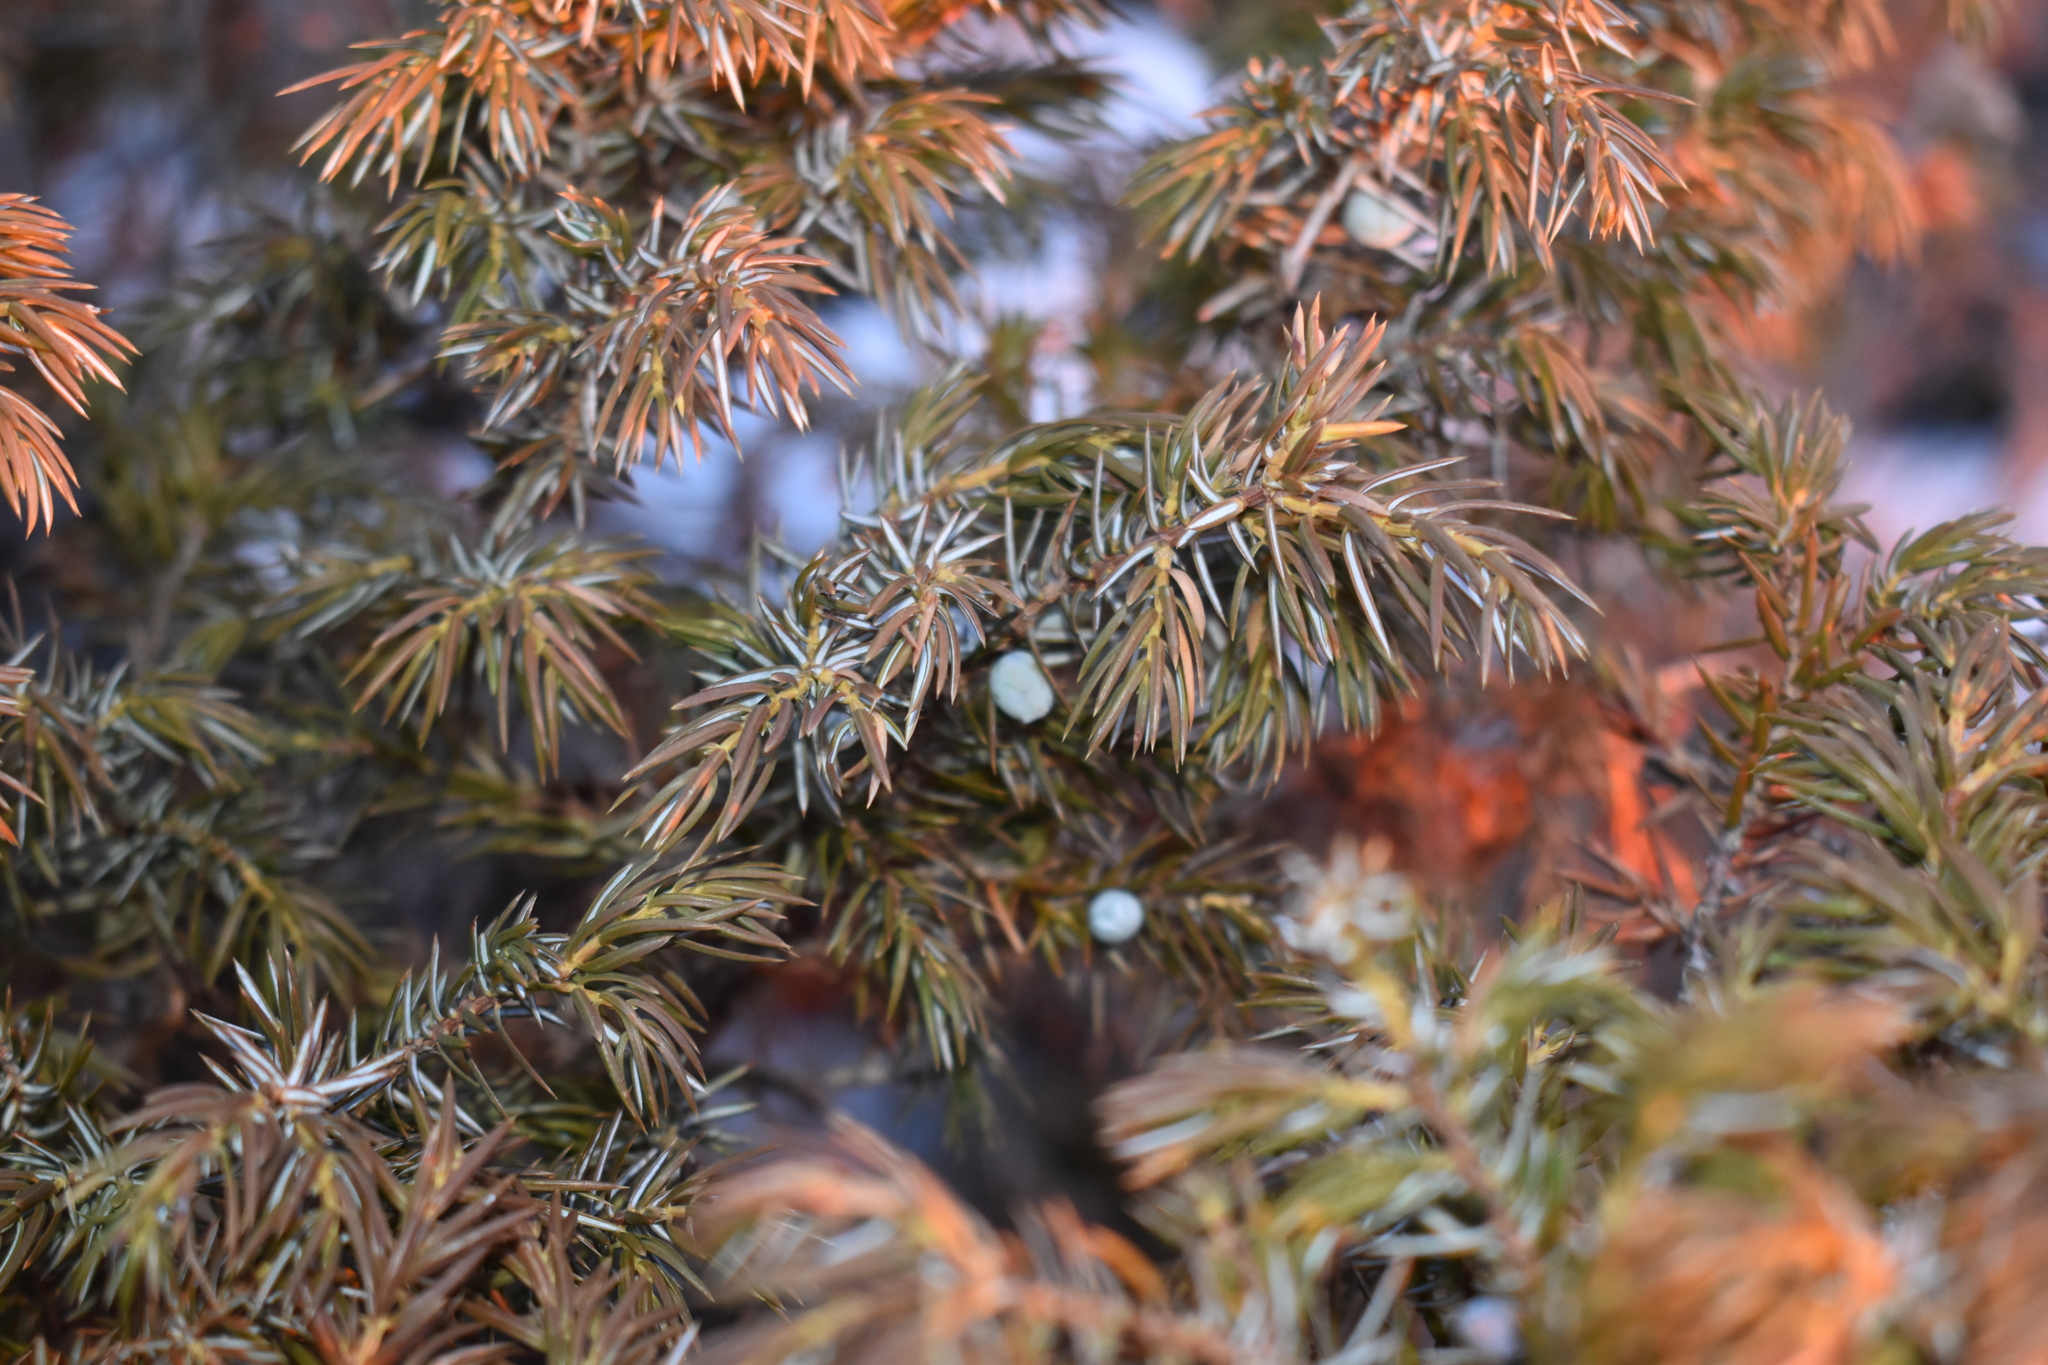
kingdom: Plantae
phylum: Tracheophyta
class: Pinopsida
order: Pinales
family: Cupressaceae
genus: Juniperus
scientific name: Juniperus communis
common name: Common juniper
